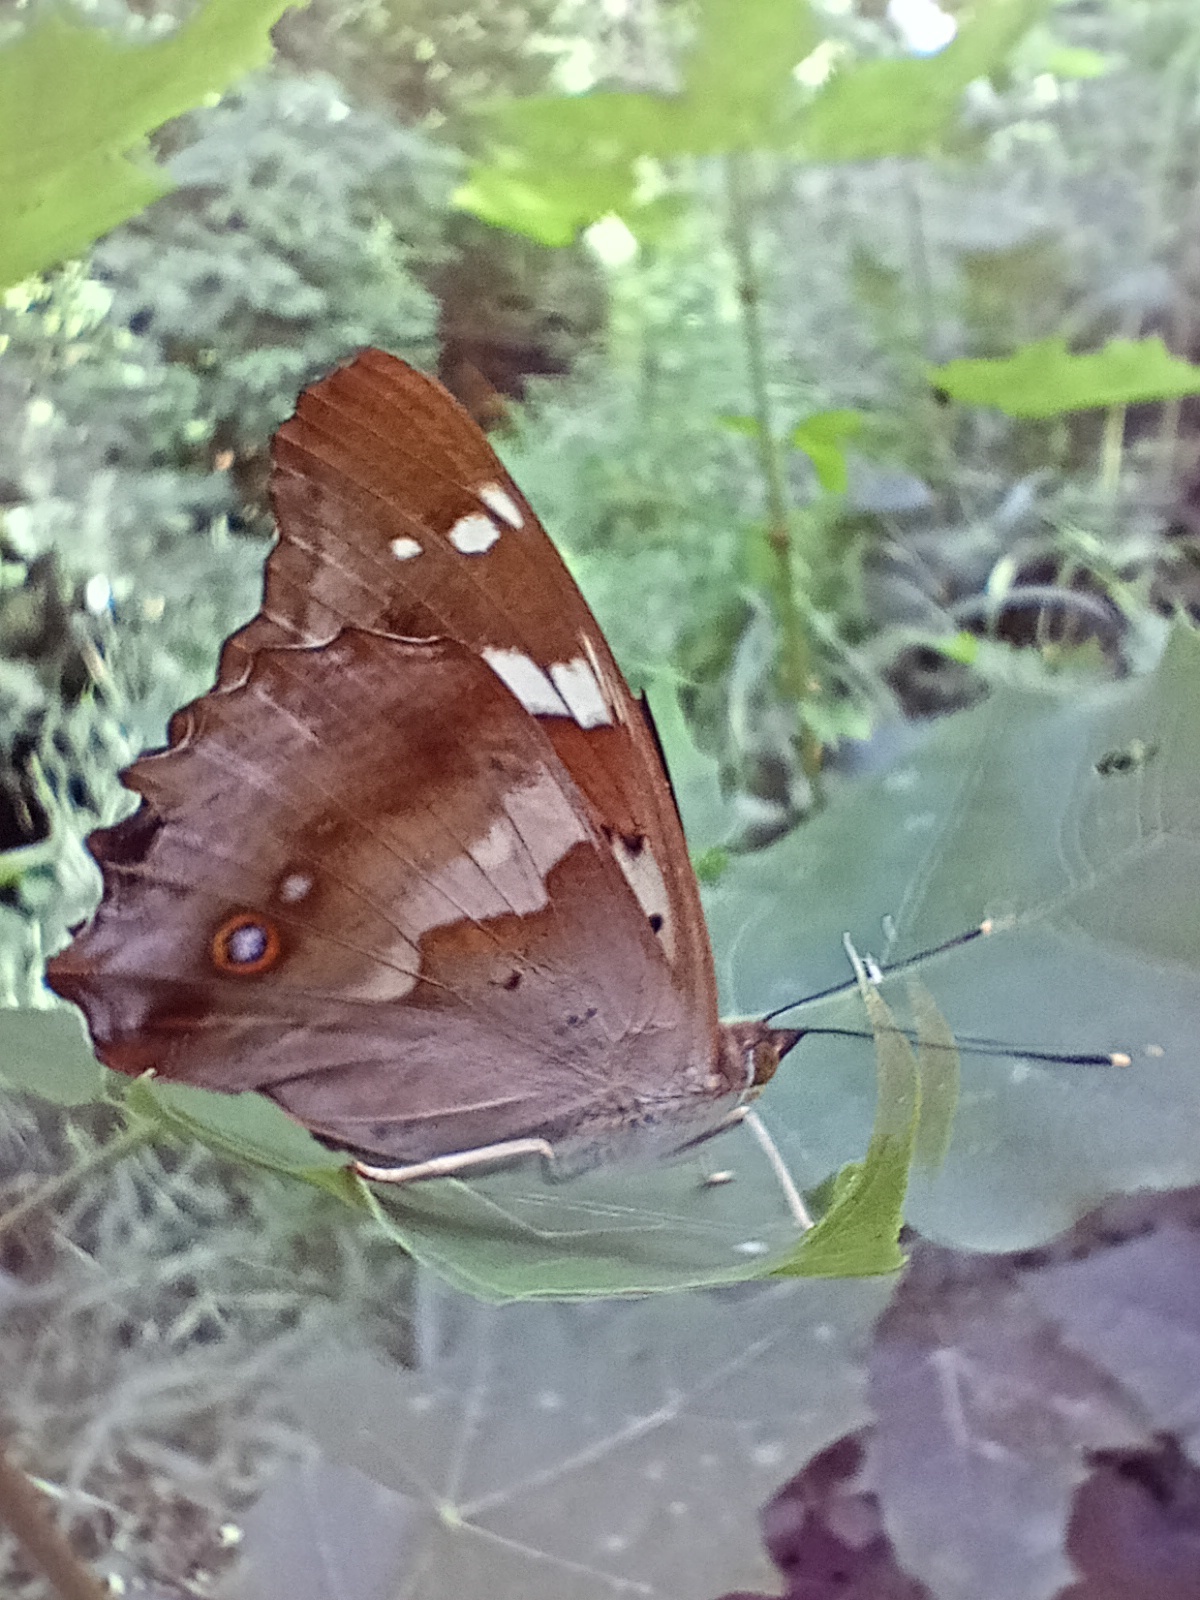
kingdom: Animalia
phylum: Arthropoda
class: Insecta
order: Lepidoptera
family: Nymphalidae
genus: Apatura
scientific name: Apatura ilia
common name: Lesser purple emperor
